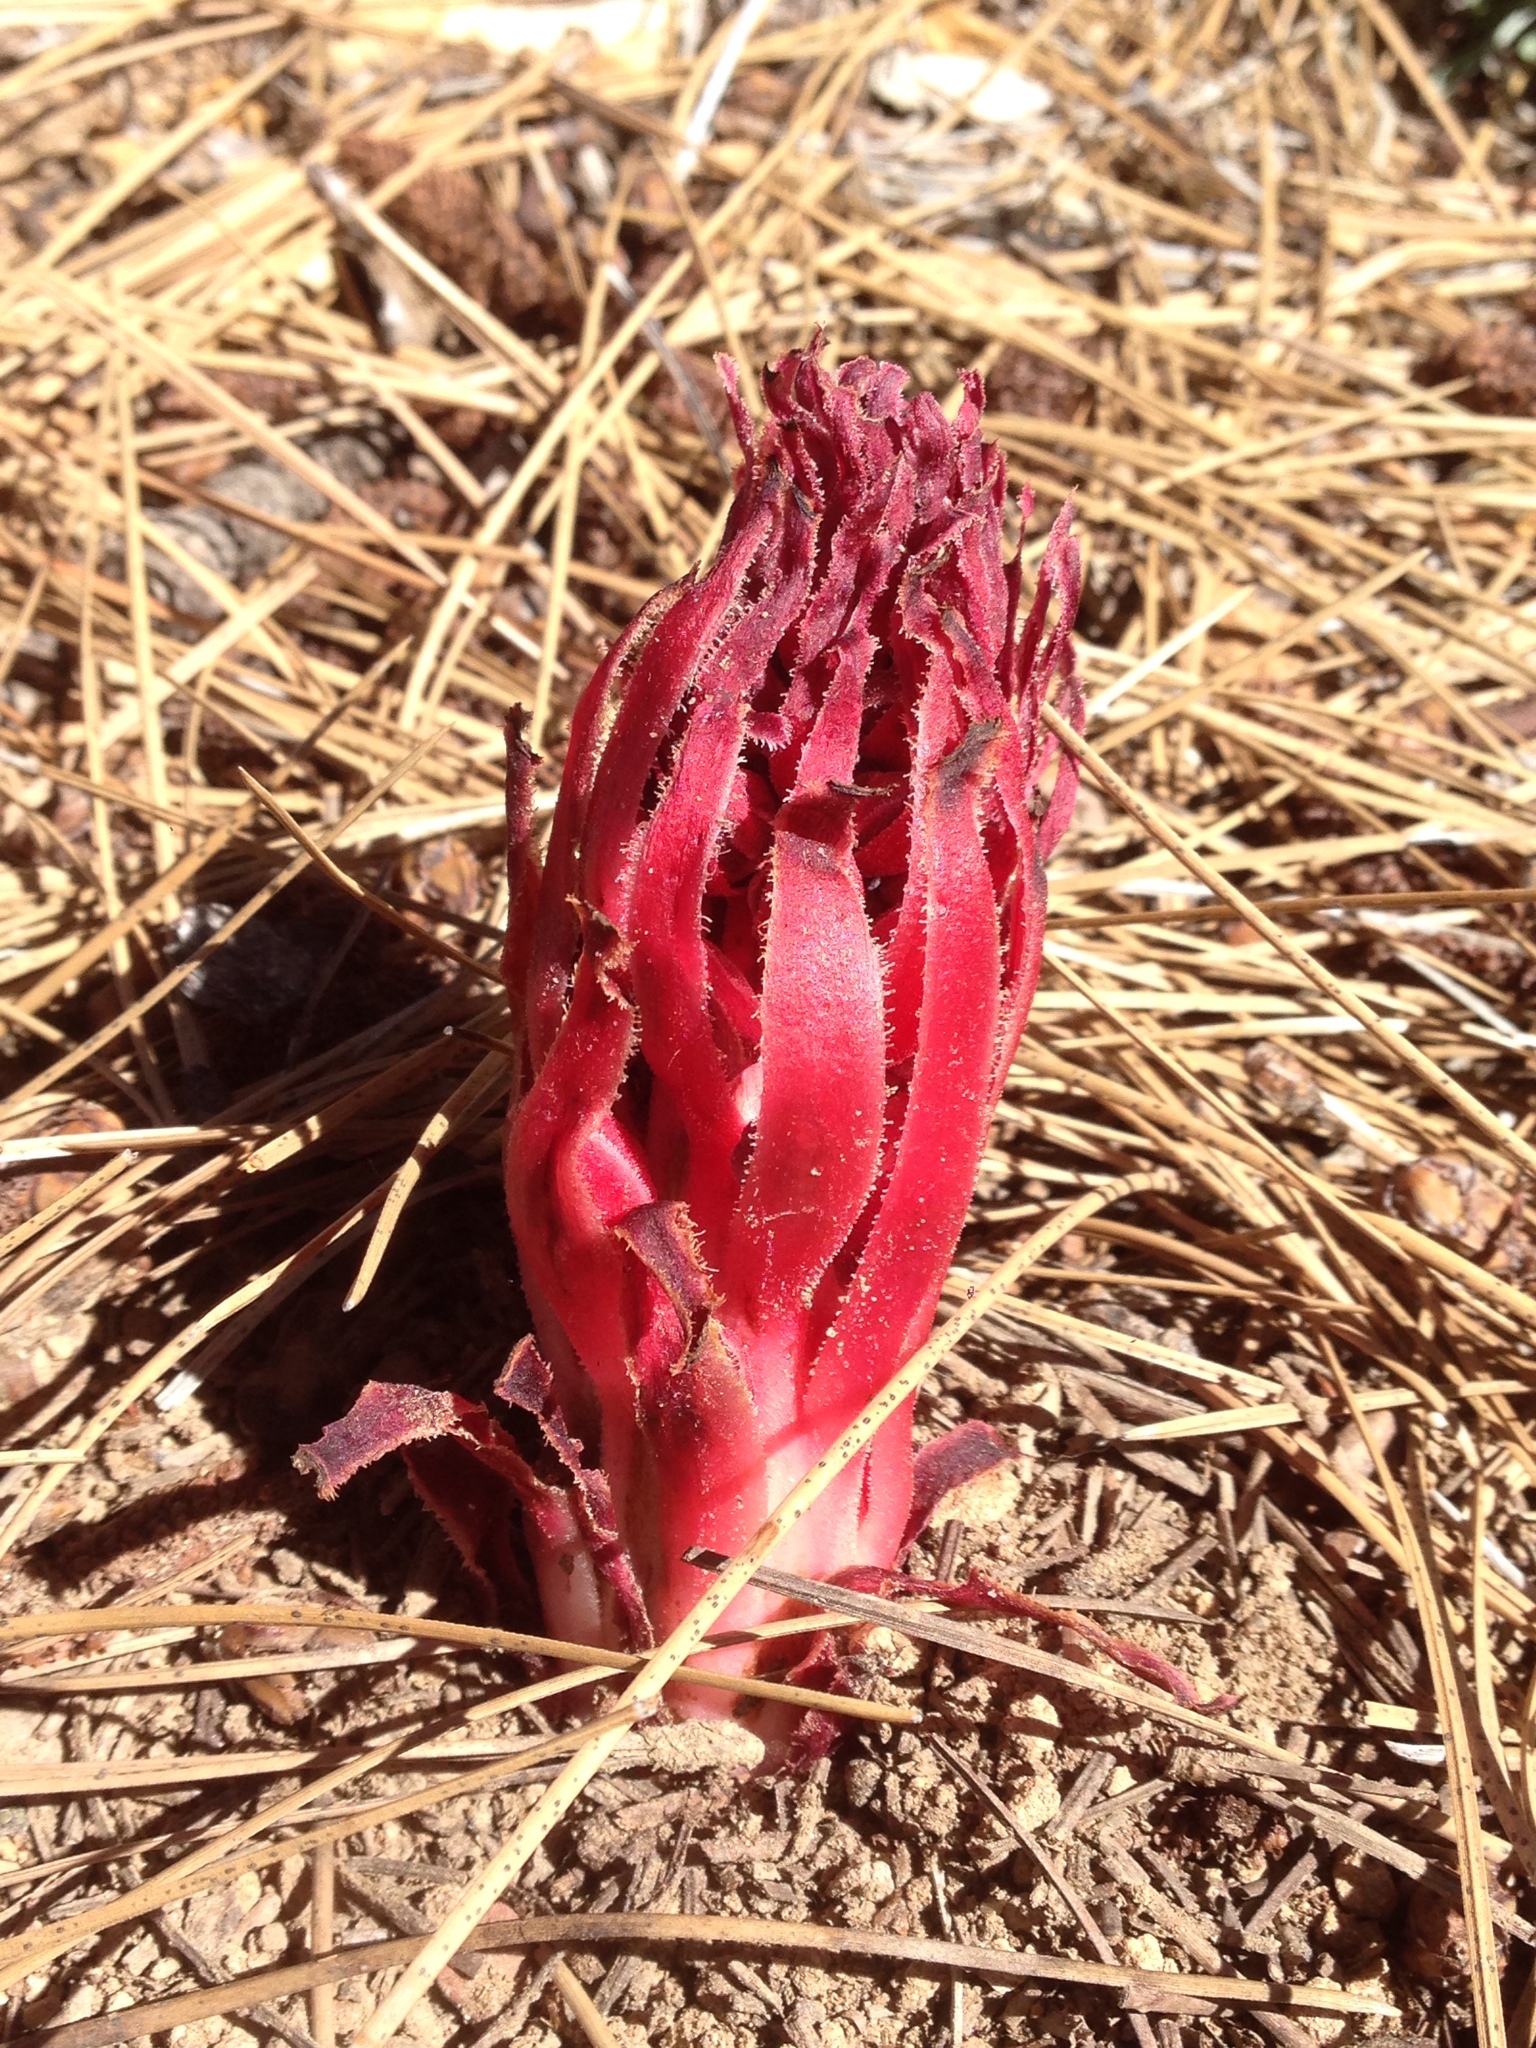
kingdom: Plantae
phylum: Tracheophyta
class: Magnoliopsida
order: Ericales
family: Ericaceae
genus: Sarcodes
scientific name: Sarcodes sanguinea
